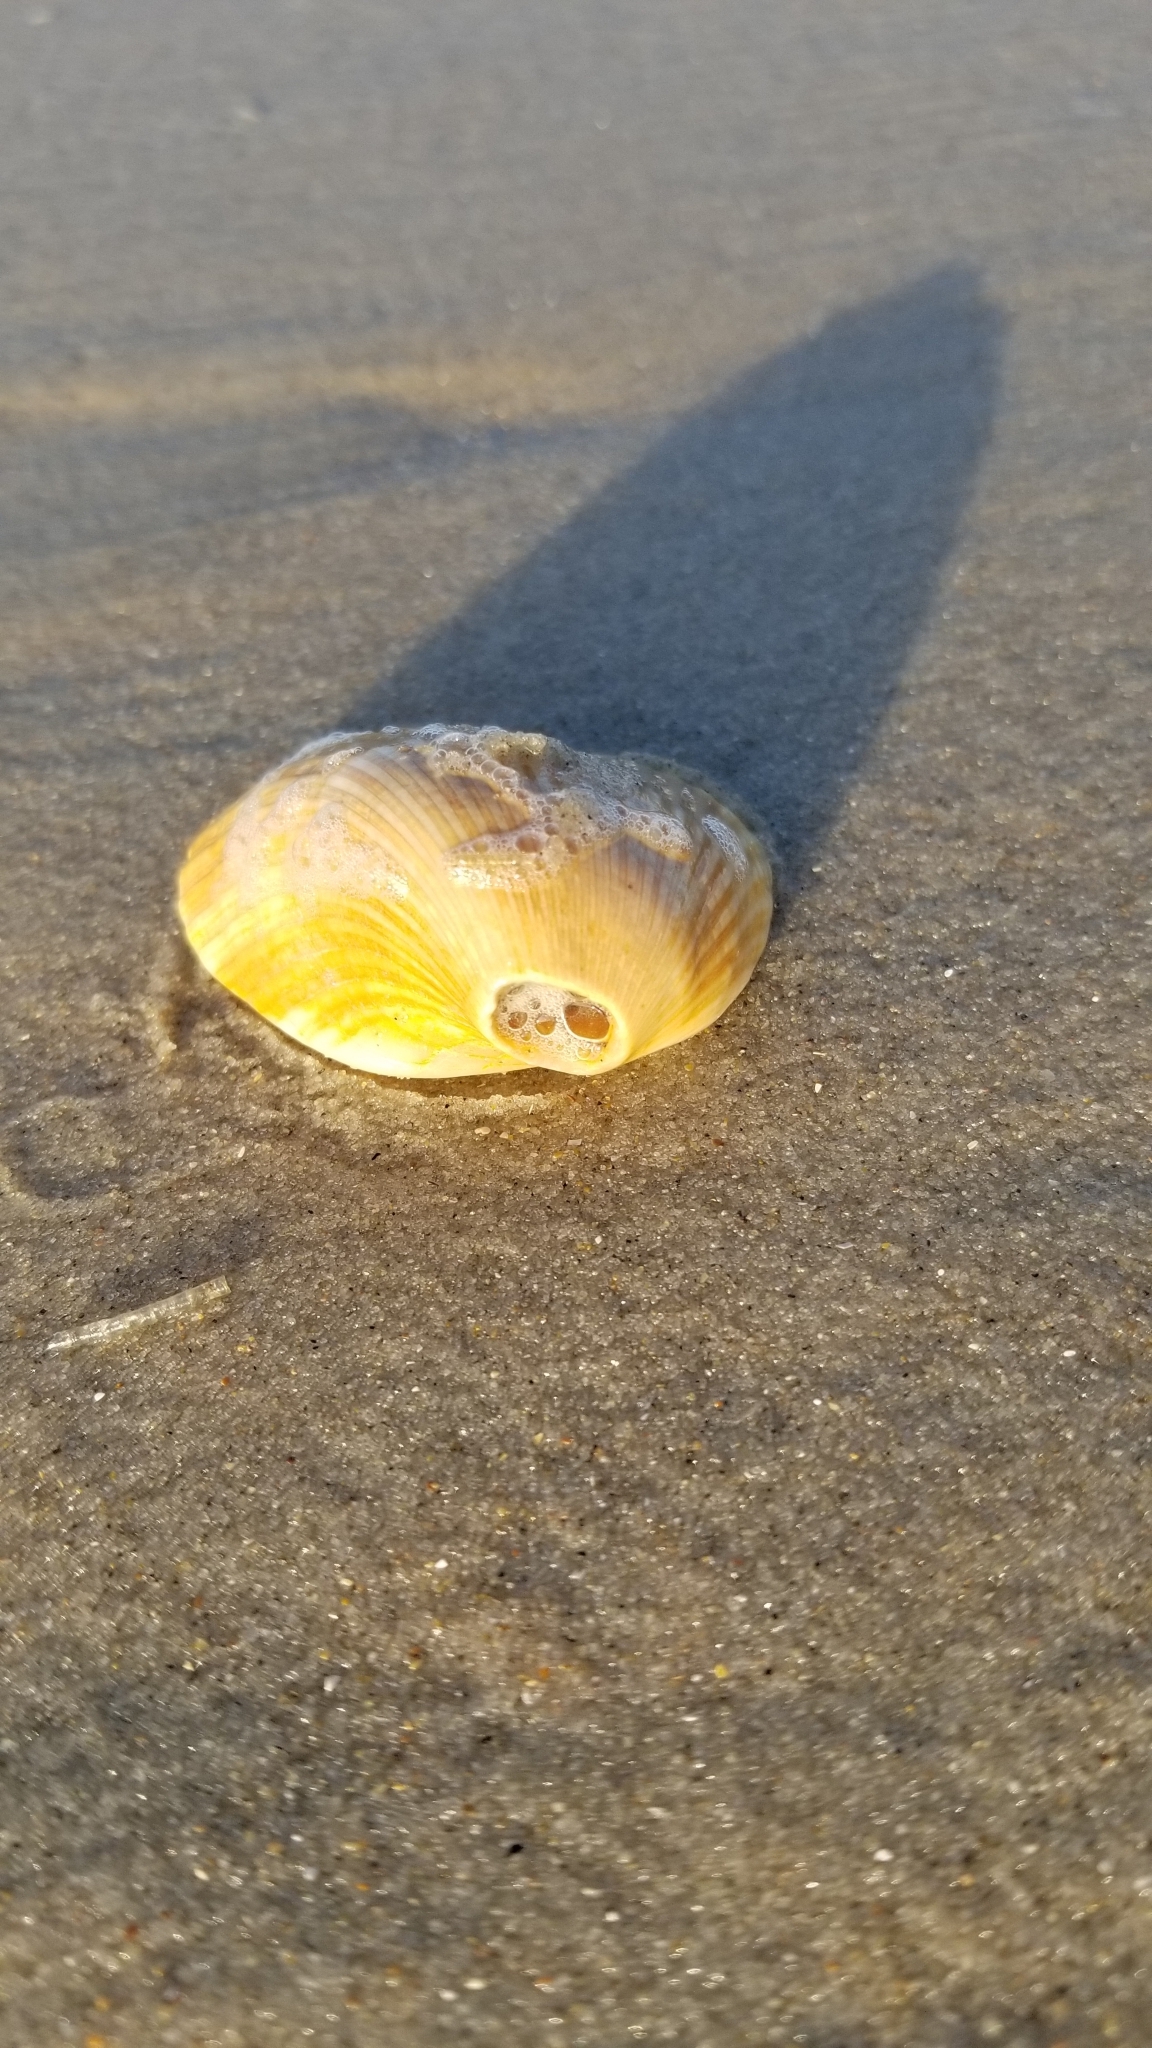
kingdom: Animalia
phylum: Mollusca
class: Bivalvia
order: Arcida
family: Noetiidae
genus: Noetia
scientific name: Noetia ponderosa
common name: Ponderous ark
